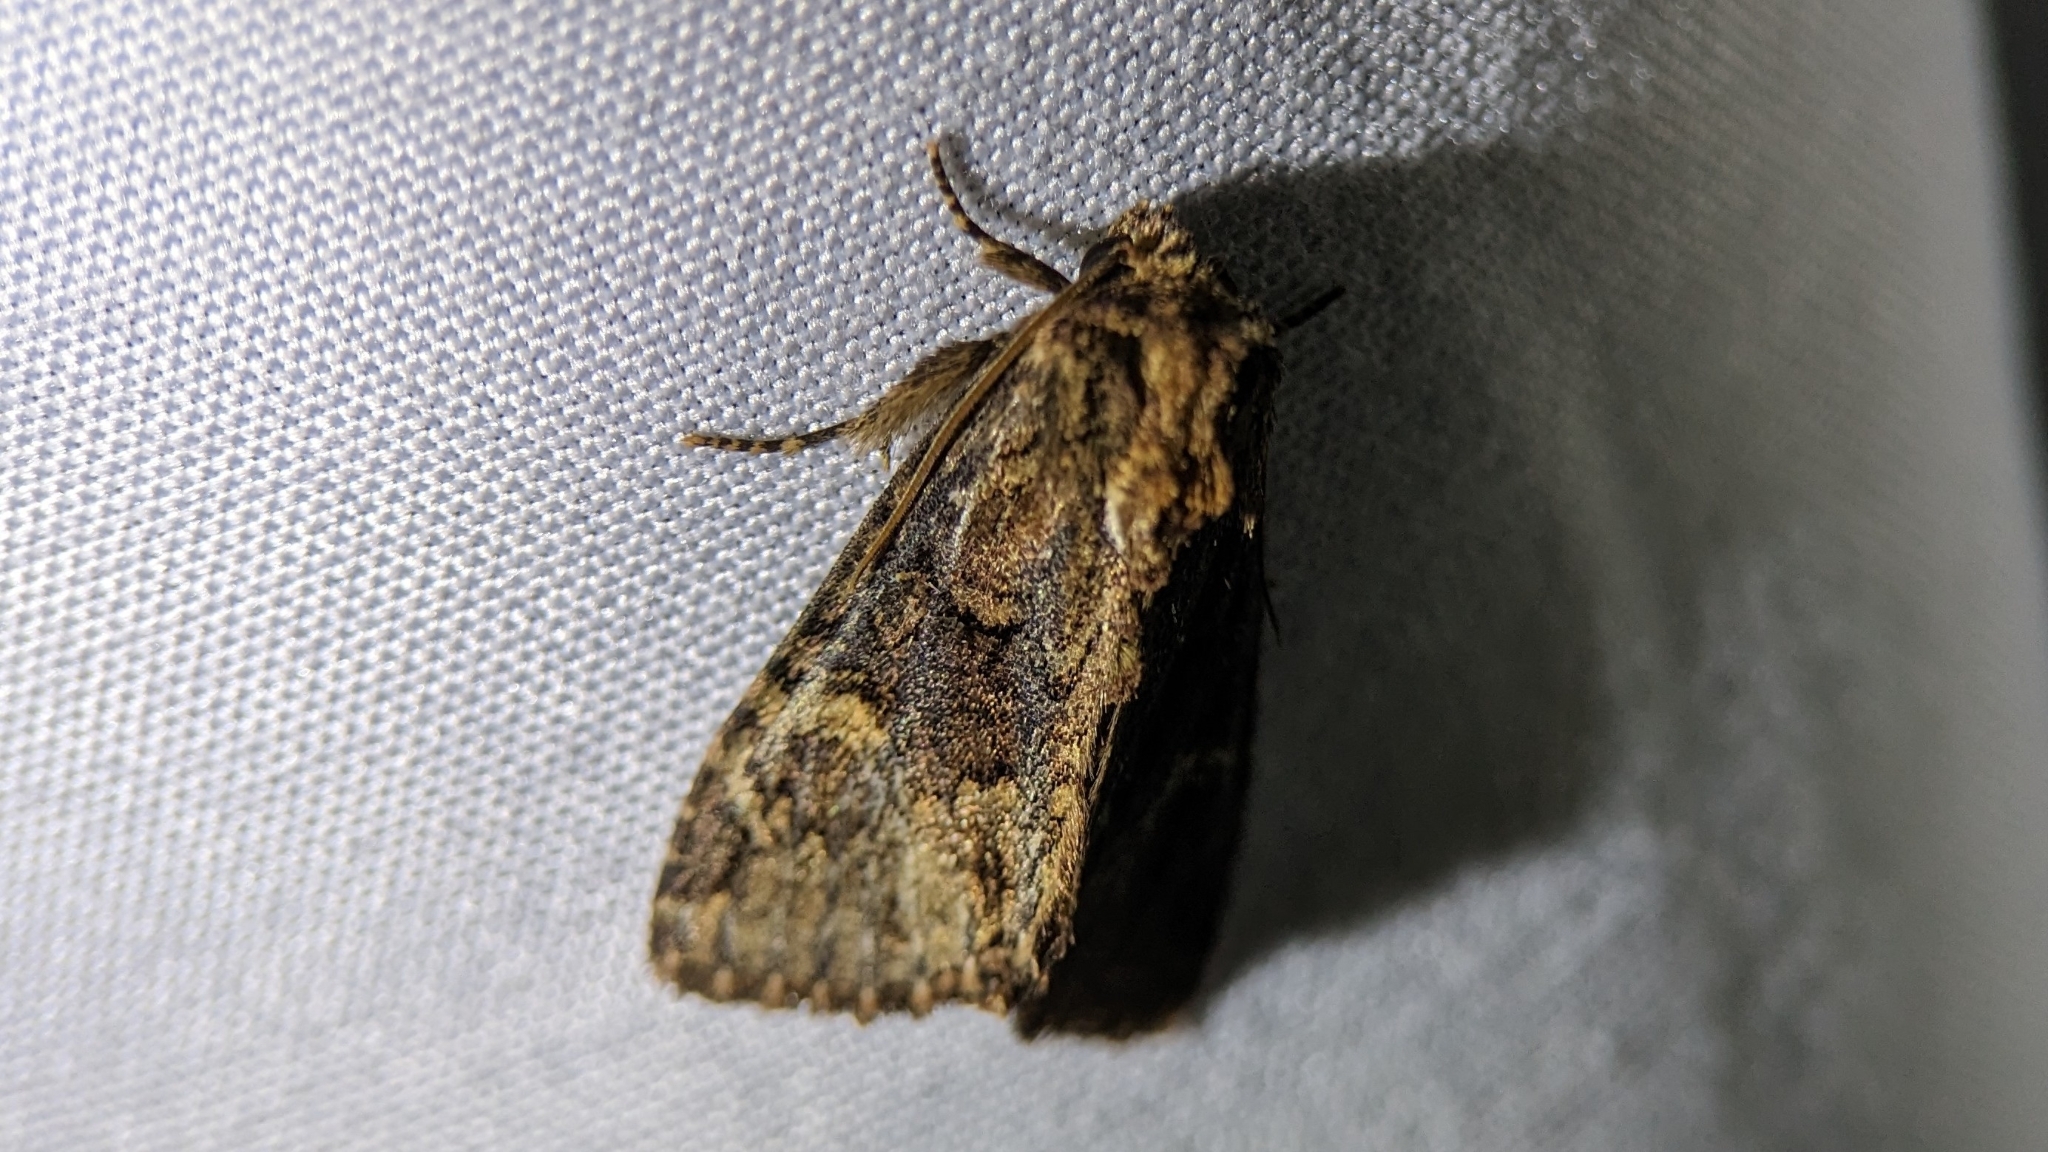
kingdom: Animalia
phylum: Arthropoda
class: Insecta
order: Lepidoptera
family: Noctuidae
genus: Phosphila
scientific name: Phosphila turbulenta
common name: Turbulent phosphila moth
